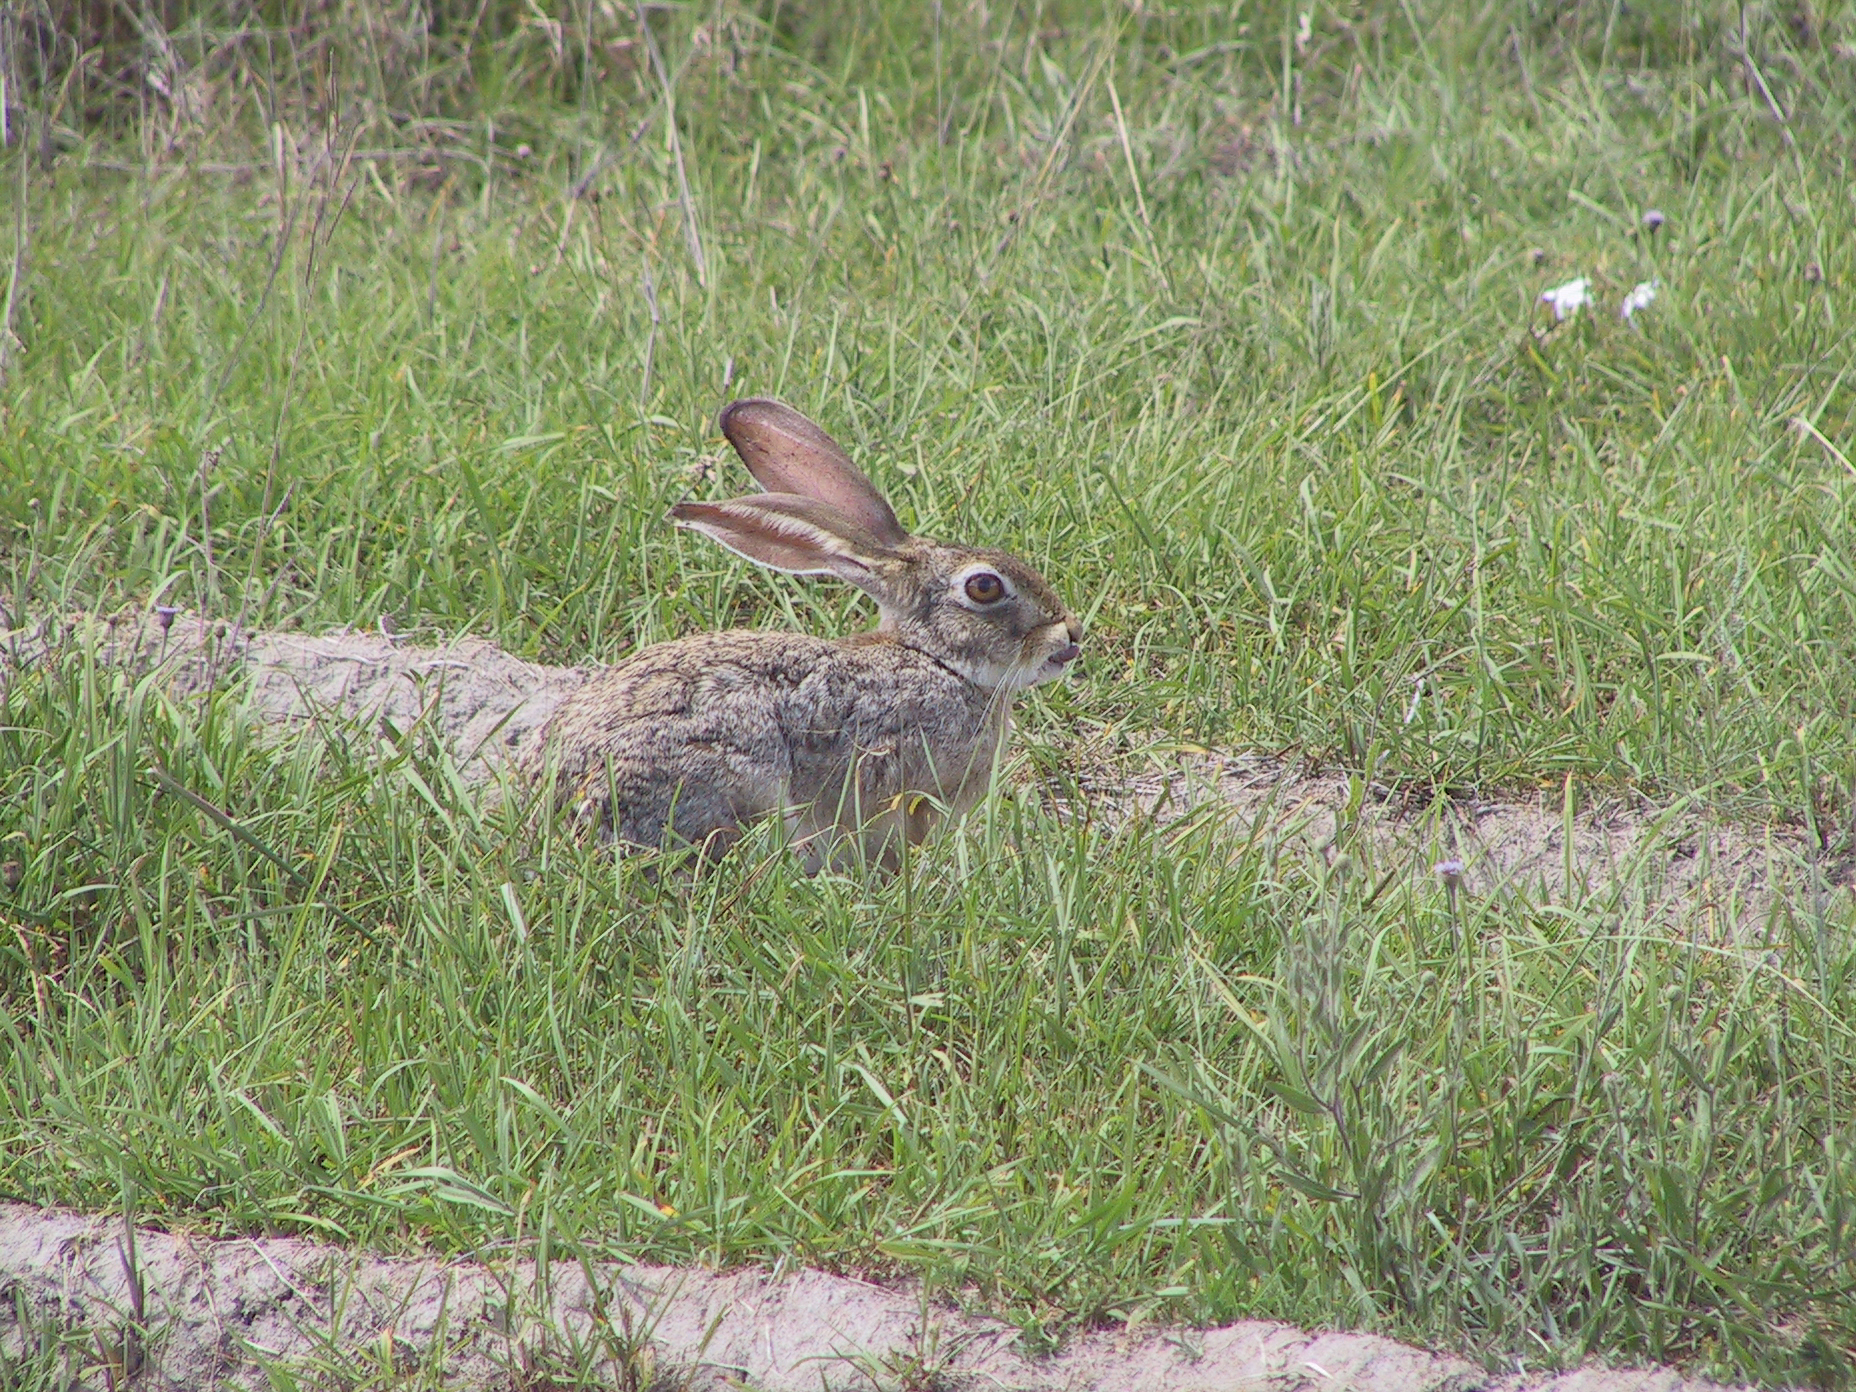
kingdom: Animalia
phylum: Chordata
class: Mammalia
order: Lagomorpha
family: Leporidae
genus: Lepus
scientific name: Lepus victoriae
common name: African savanna hare
